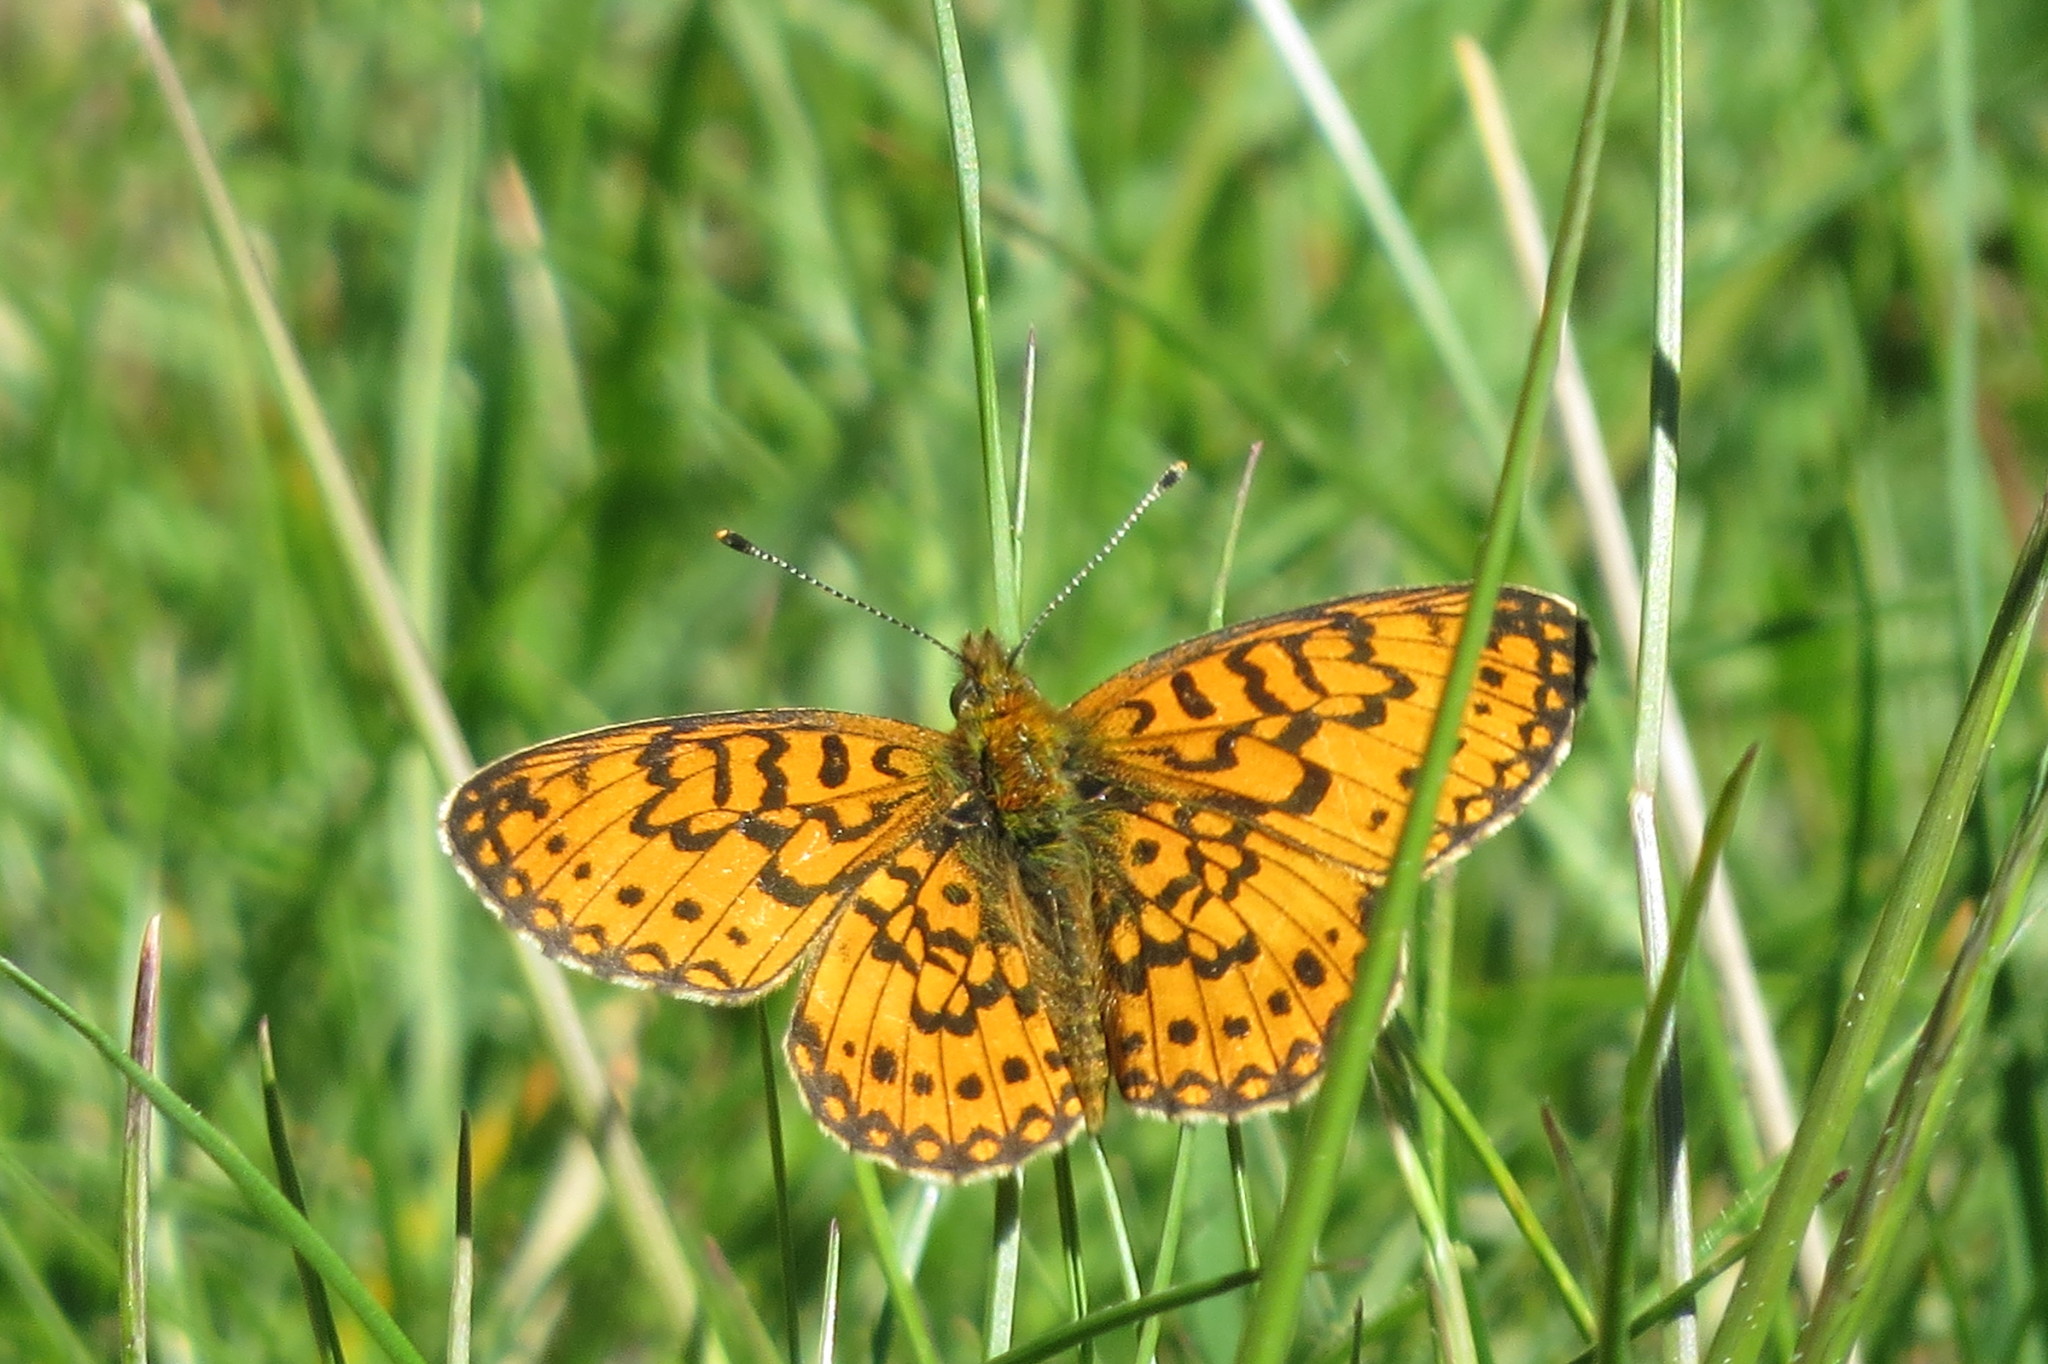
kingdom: Animalia
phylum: Arthropoda
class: Insecta
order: Lepidoptera
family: Nymphalidae
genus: Boloria
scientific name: Boloria selene
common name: Small pearl-bordered fritillary
